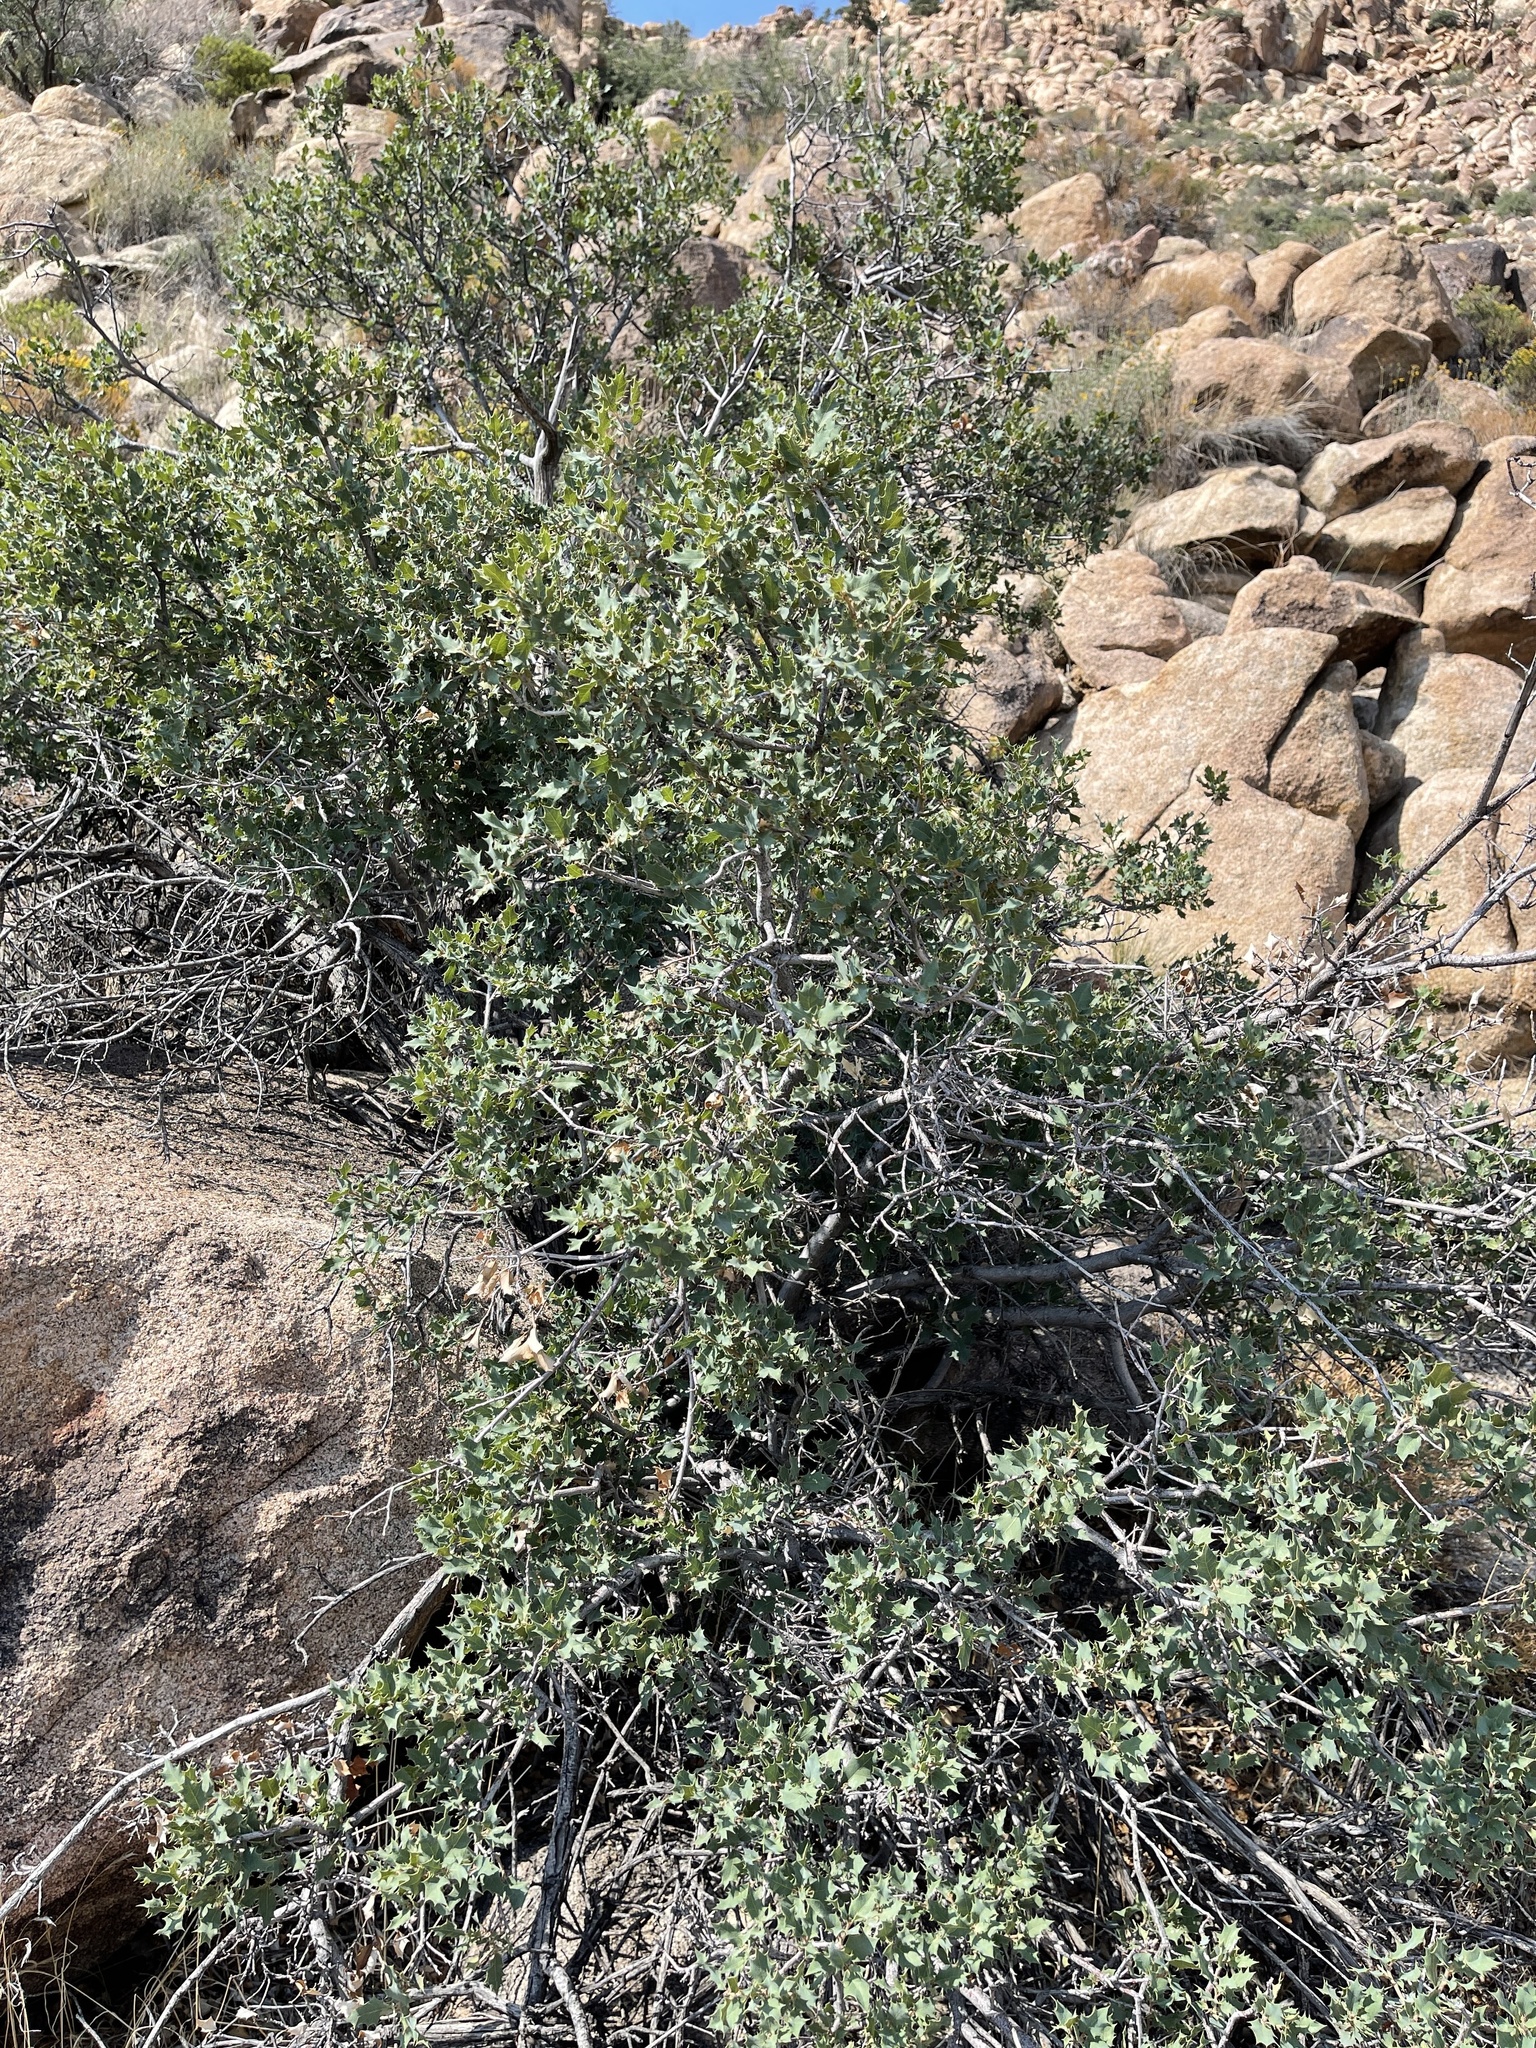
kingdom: Plantae
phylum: Tracheophyta
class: Magnoliopsida
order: Fagales
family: Fagaceae
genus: Quercus
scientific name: Quercus turbinella
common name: Sonoran scrub oak
